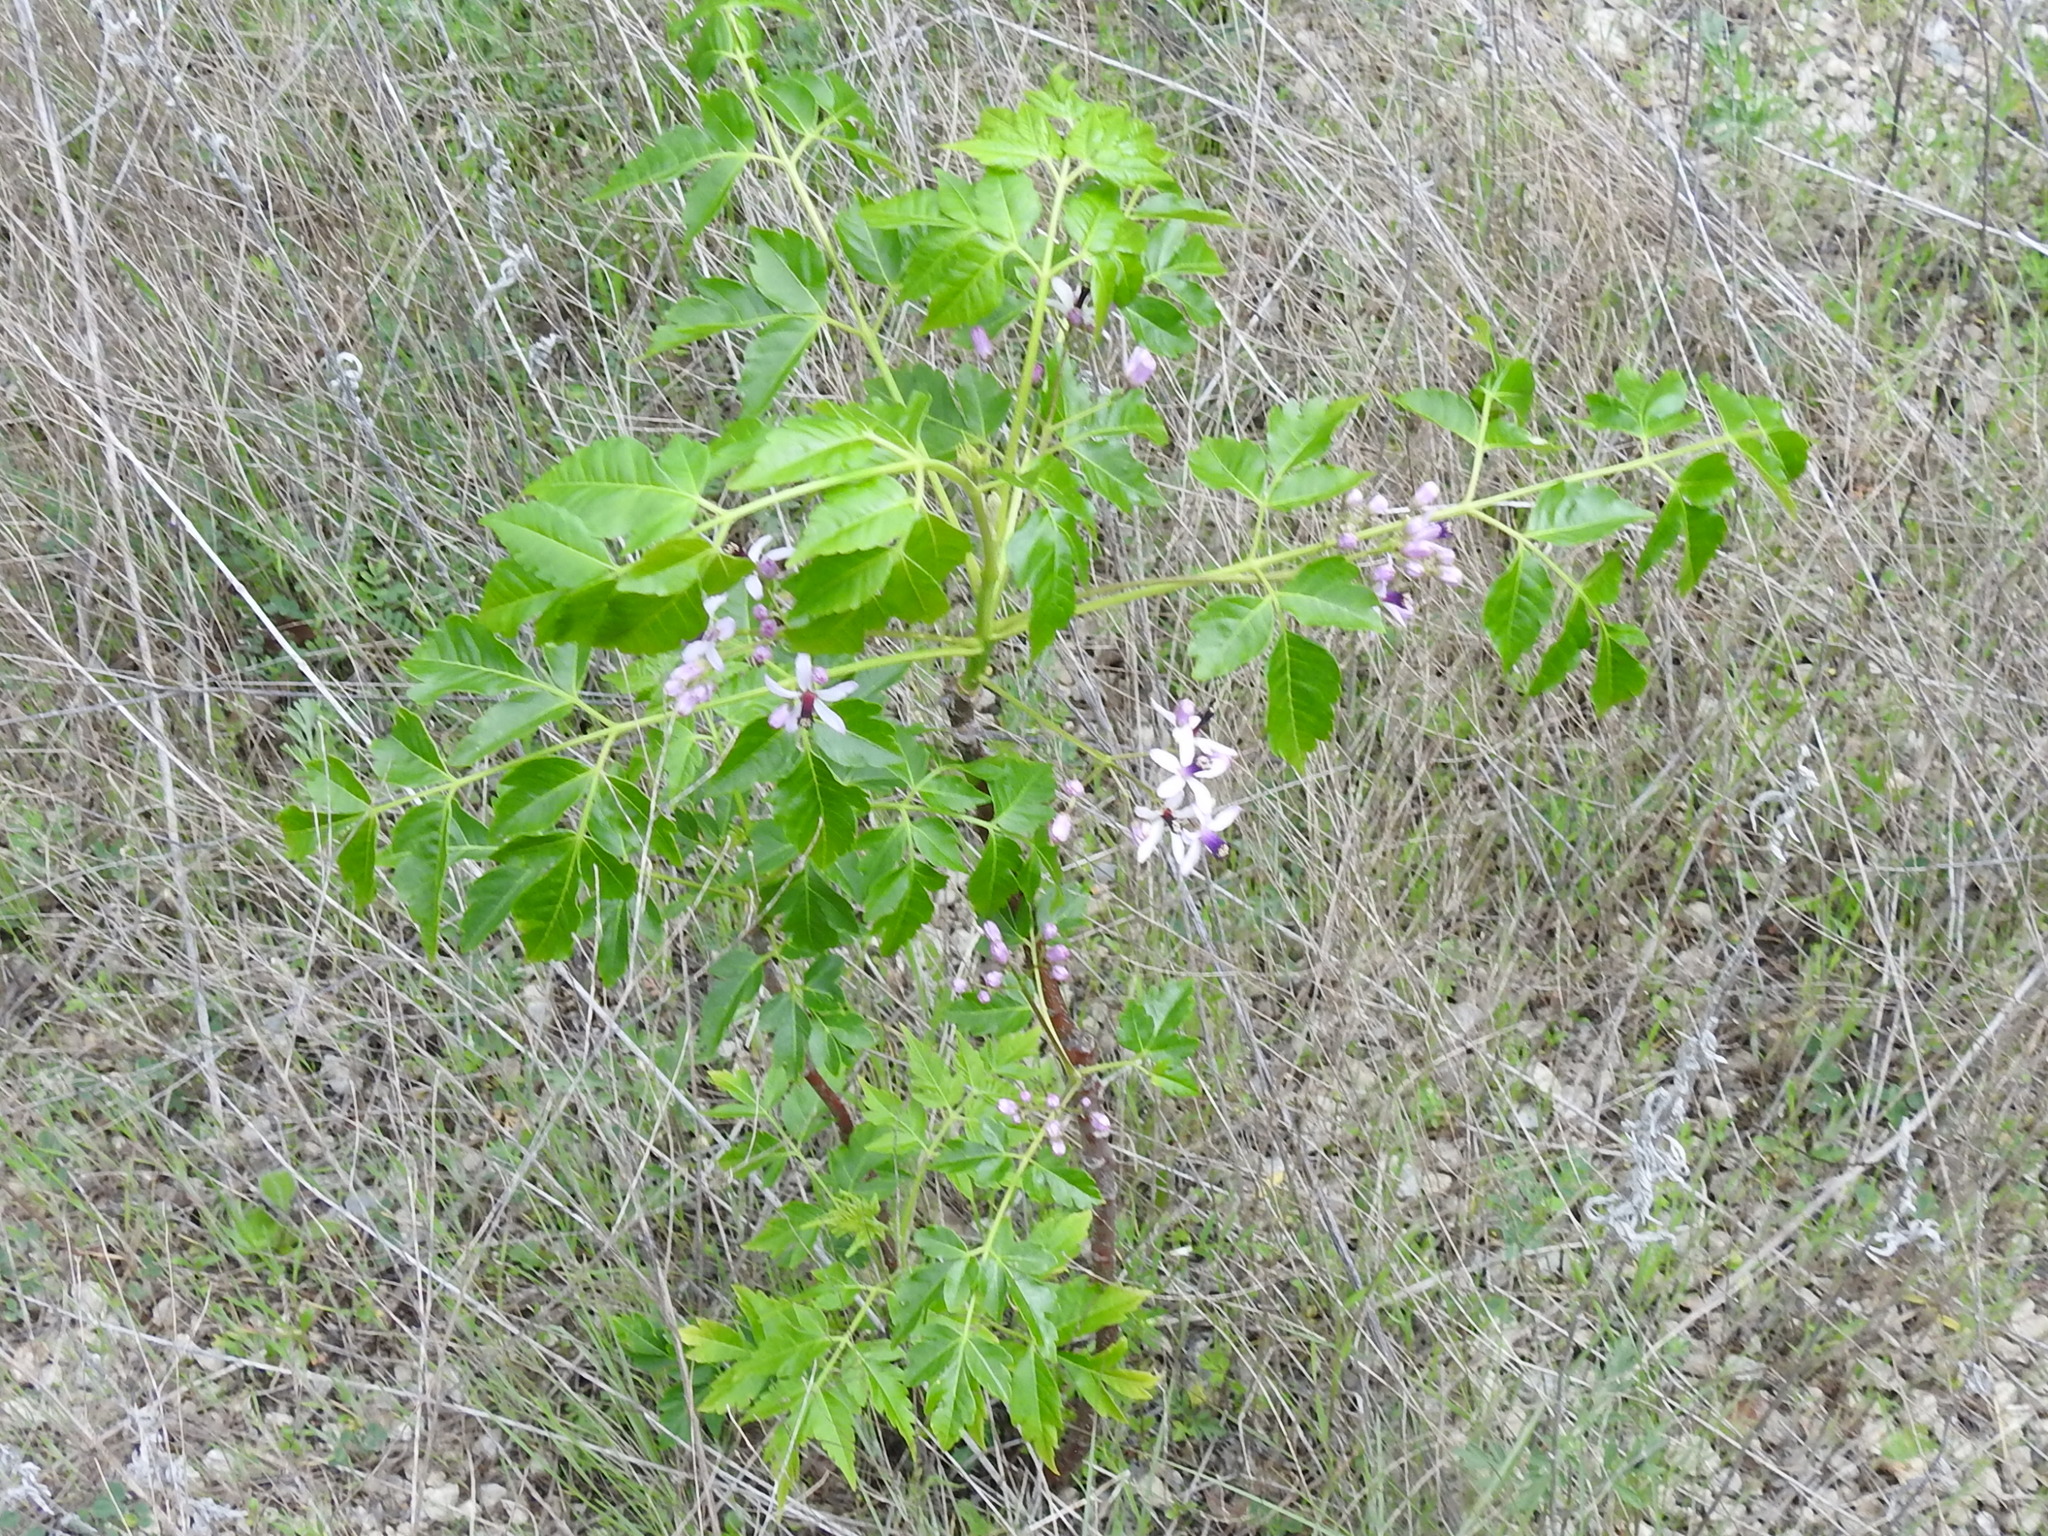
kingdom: Plantae
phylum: Tracheophyta
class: Magnoliopsida
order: Sapindales
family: Meliaceae
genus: Melia
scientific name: Melia azedarach
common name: Chinaberrytree
